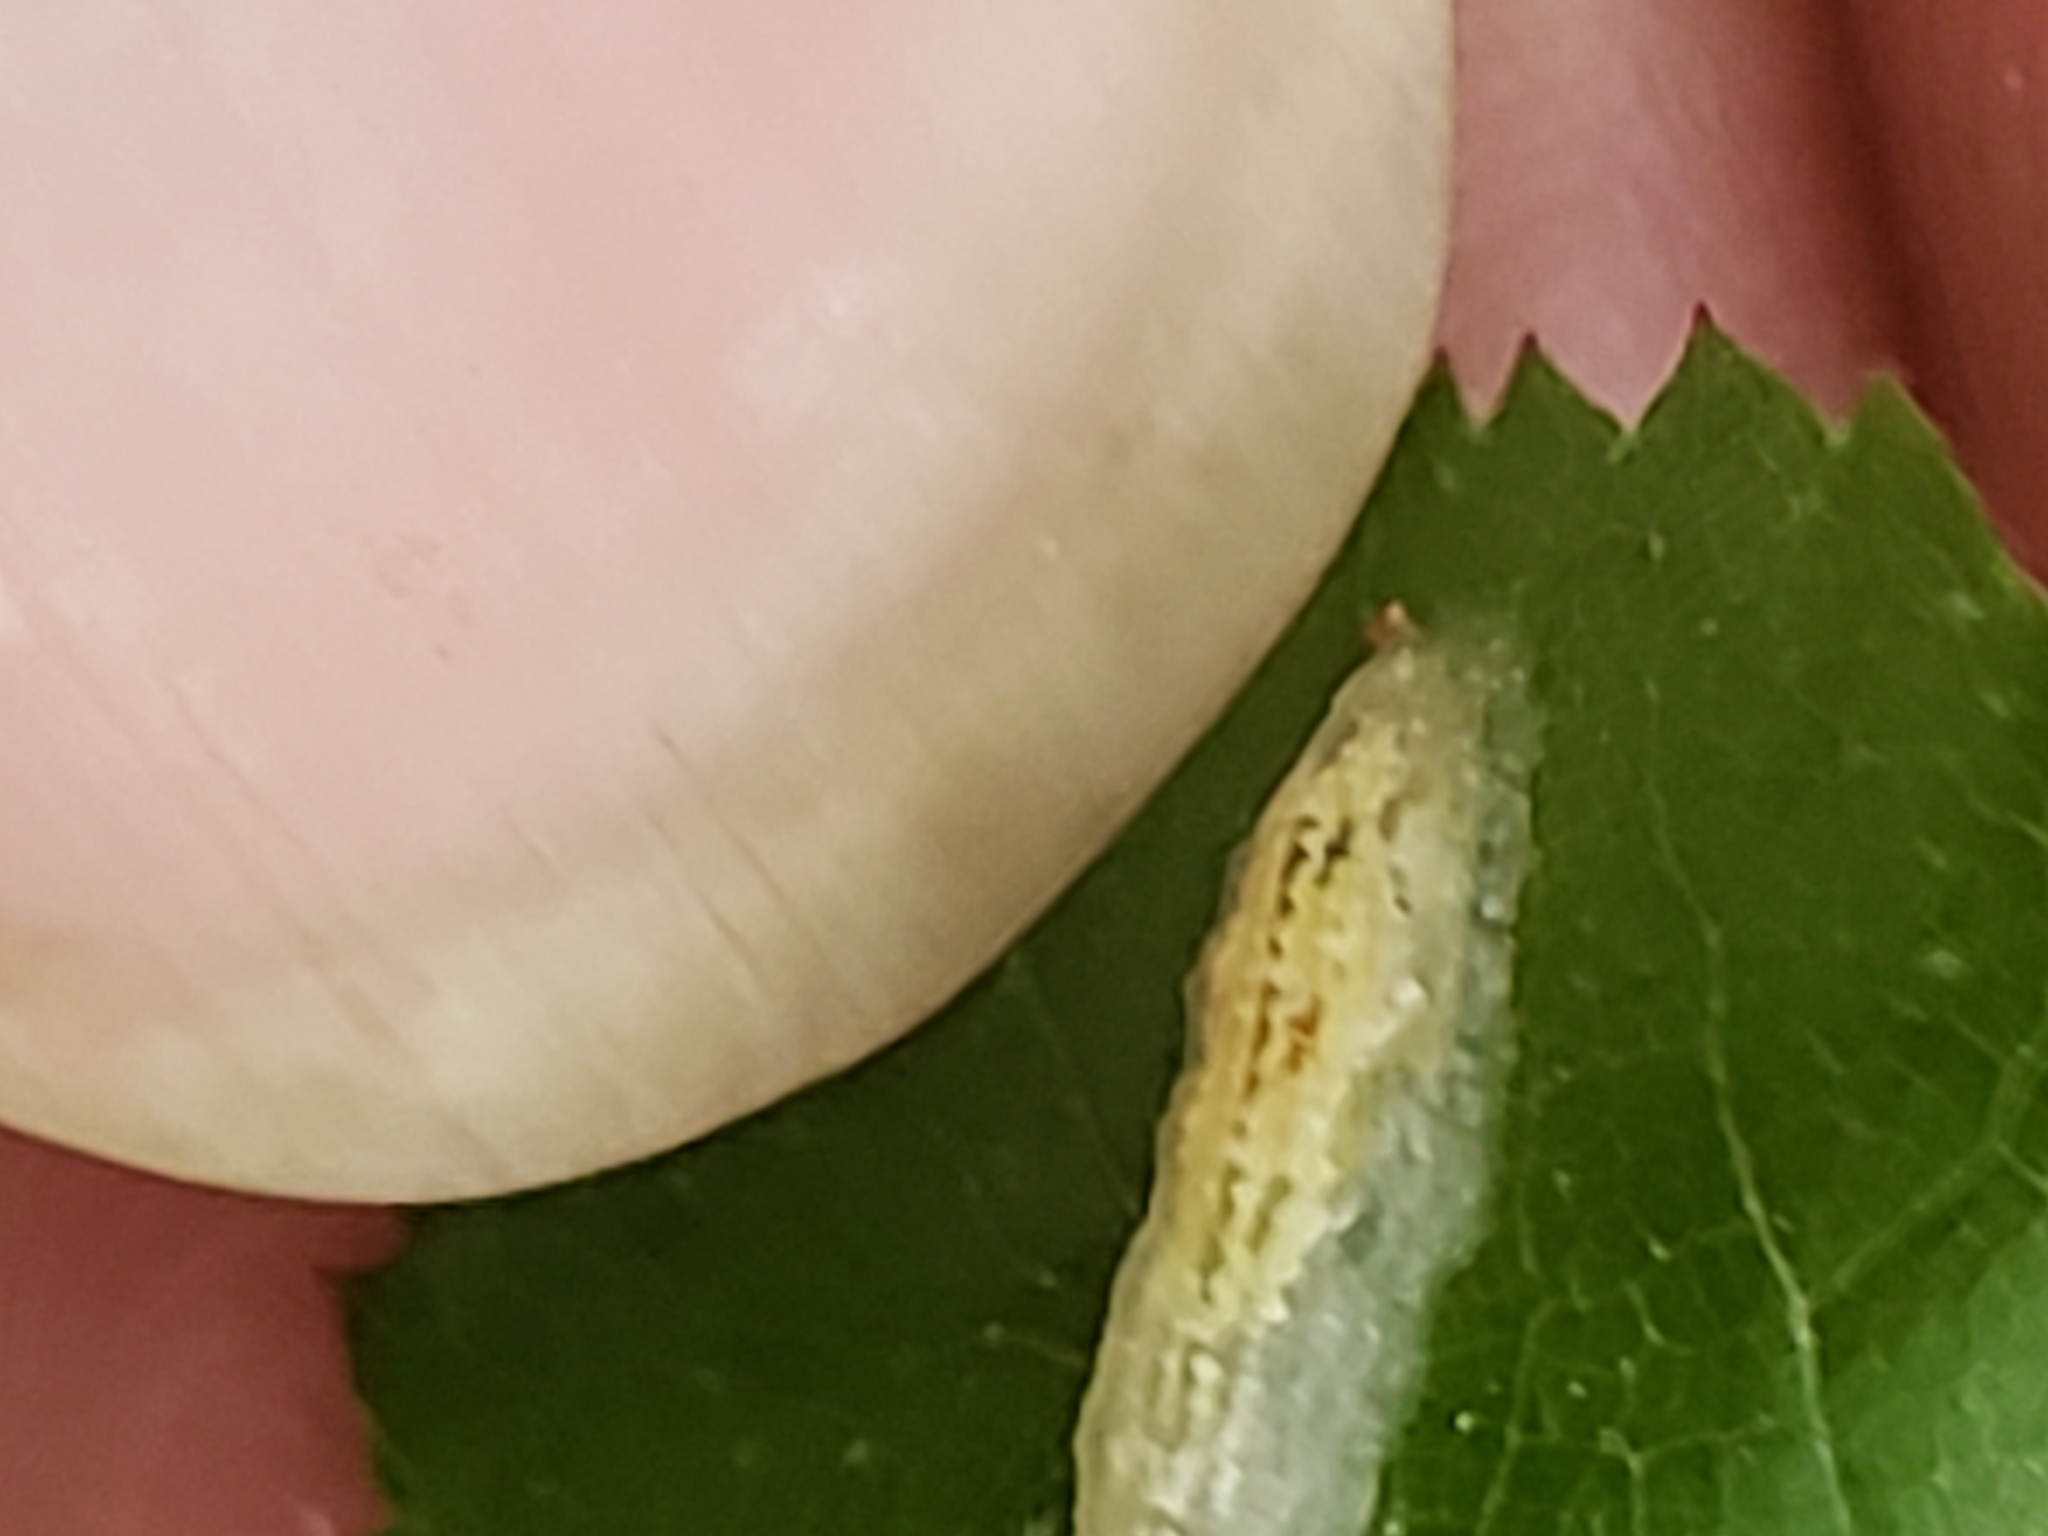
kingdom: Animalia
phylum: Arthropoda
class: Insecta
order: Diptera
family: Syrphidae
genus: Syrphus
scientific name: Syrphus
